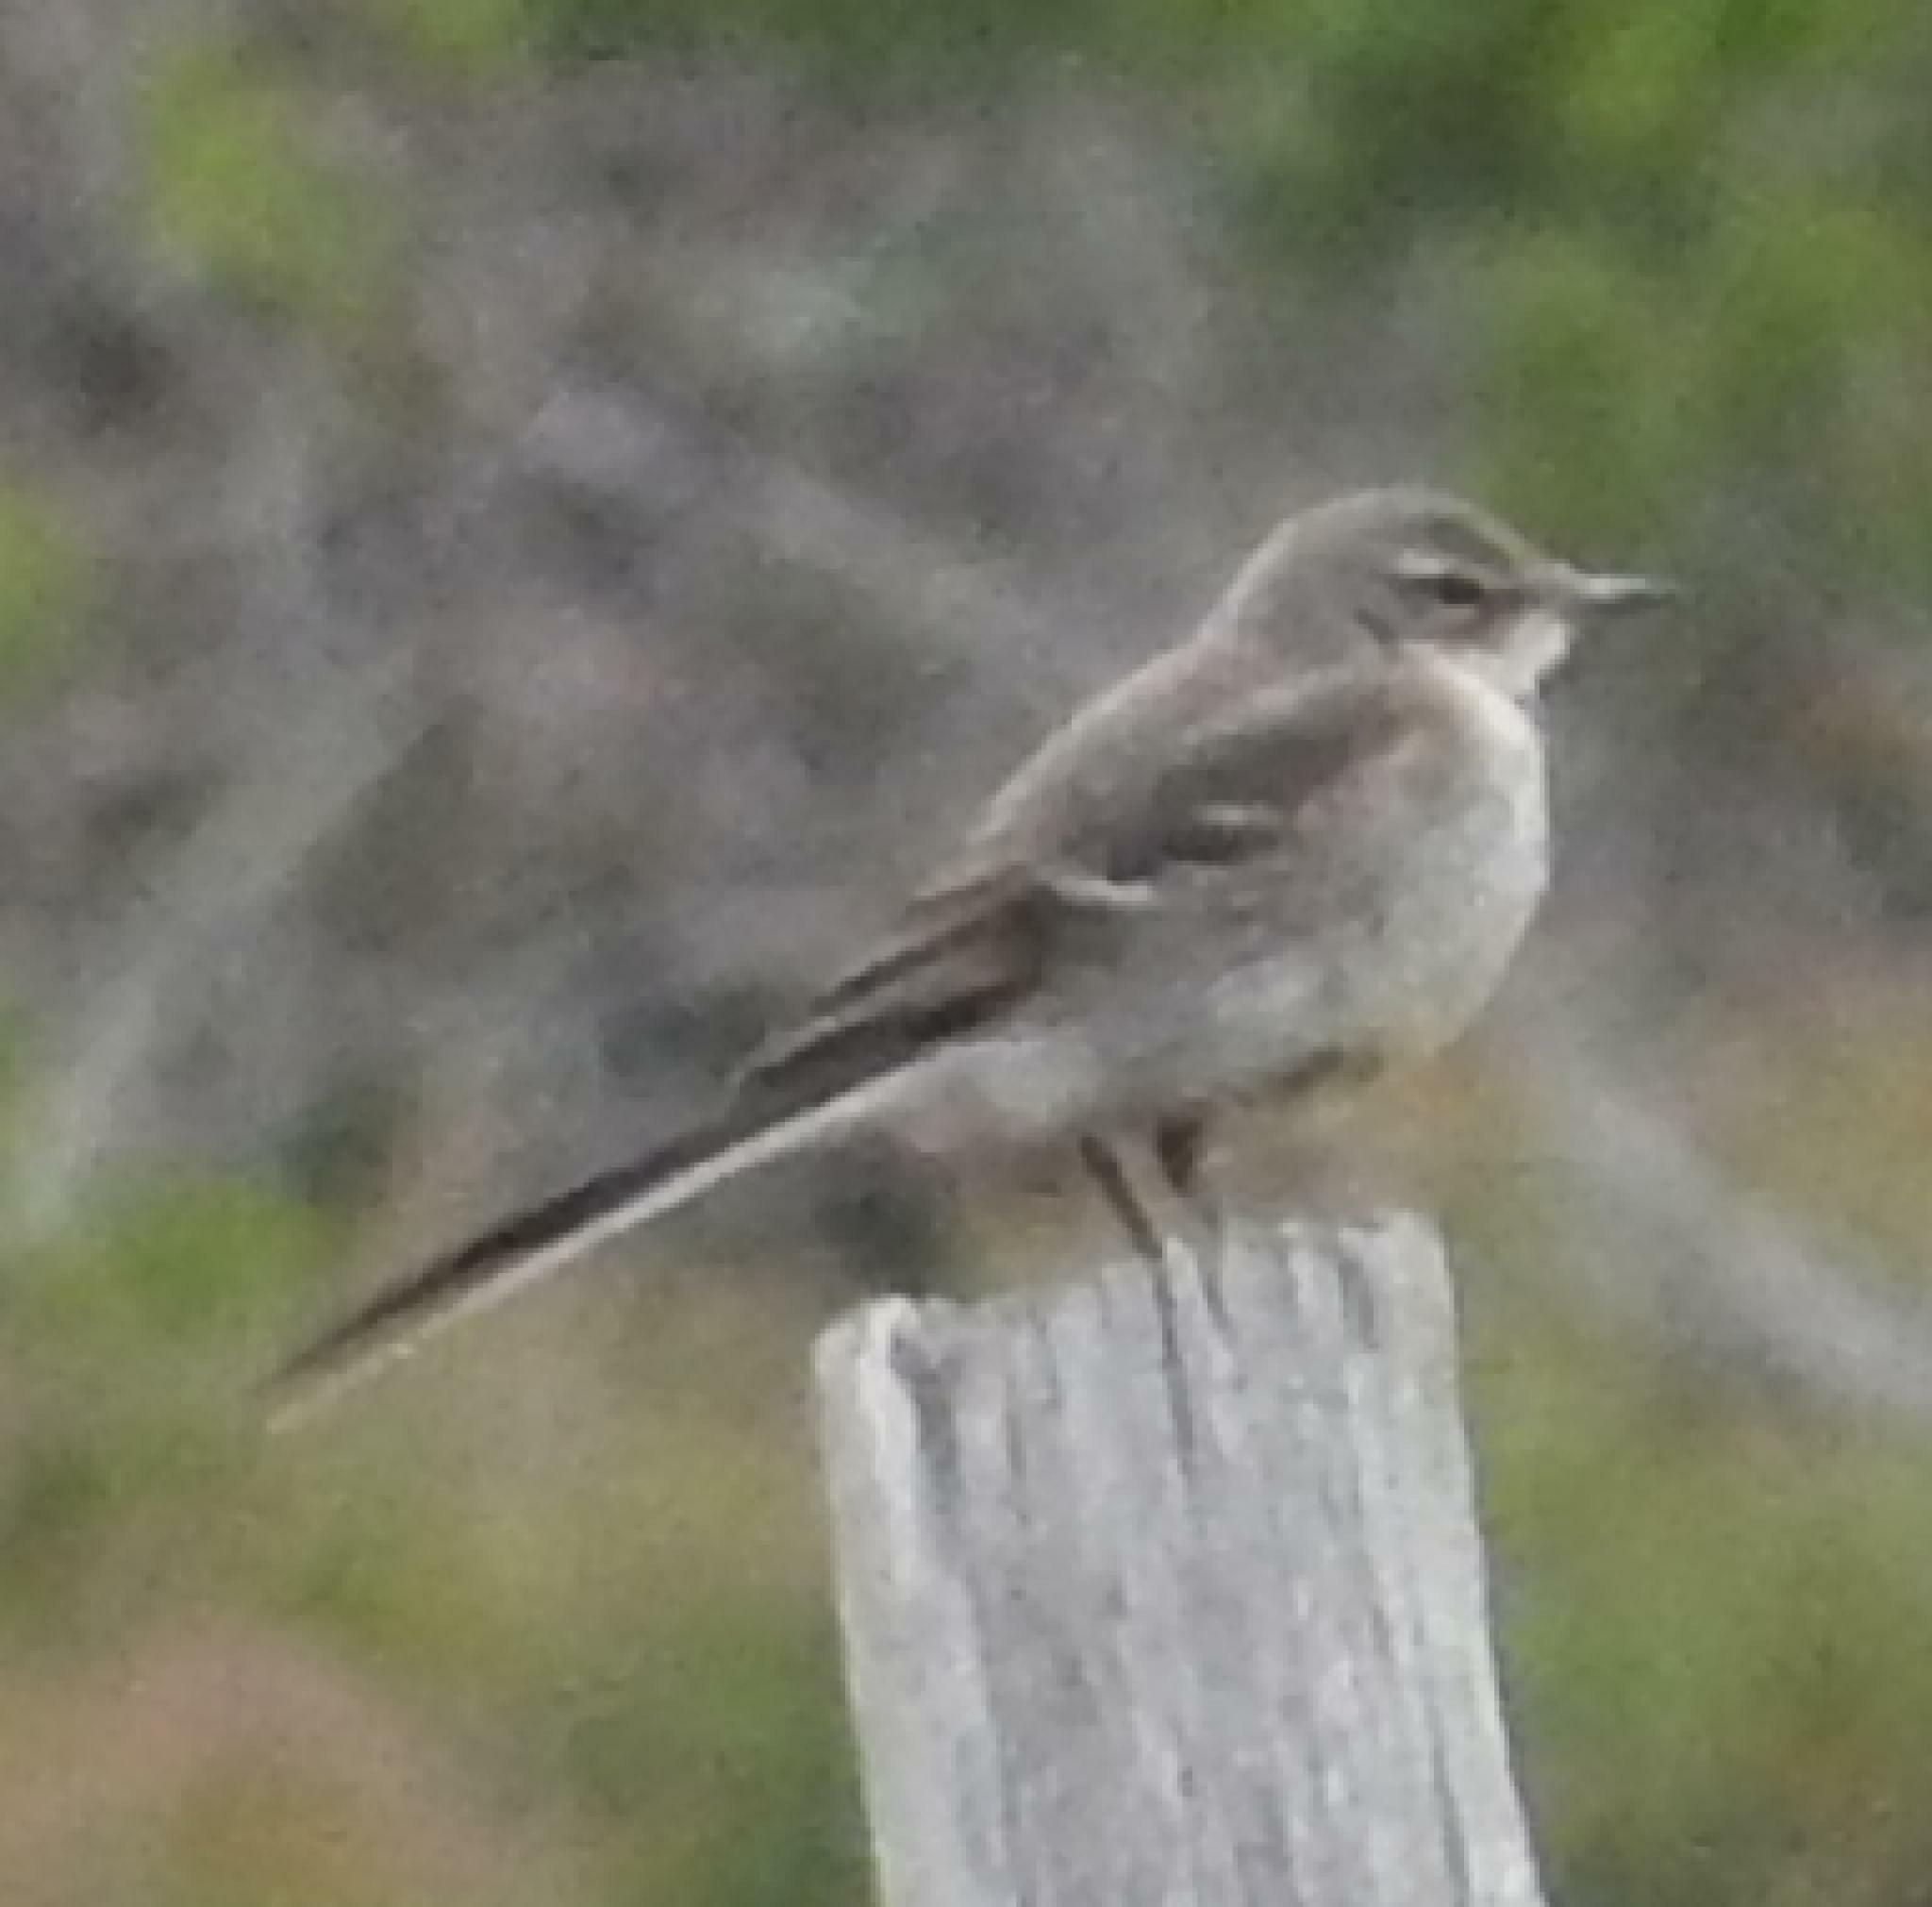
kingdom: Animalia
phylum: Chordata
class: Aves
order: Passeriformes
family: Motacillidae
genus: Motacilla
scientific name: Motacilla capensis
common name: Cape wagtail
